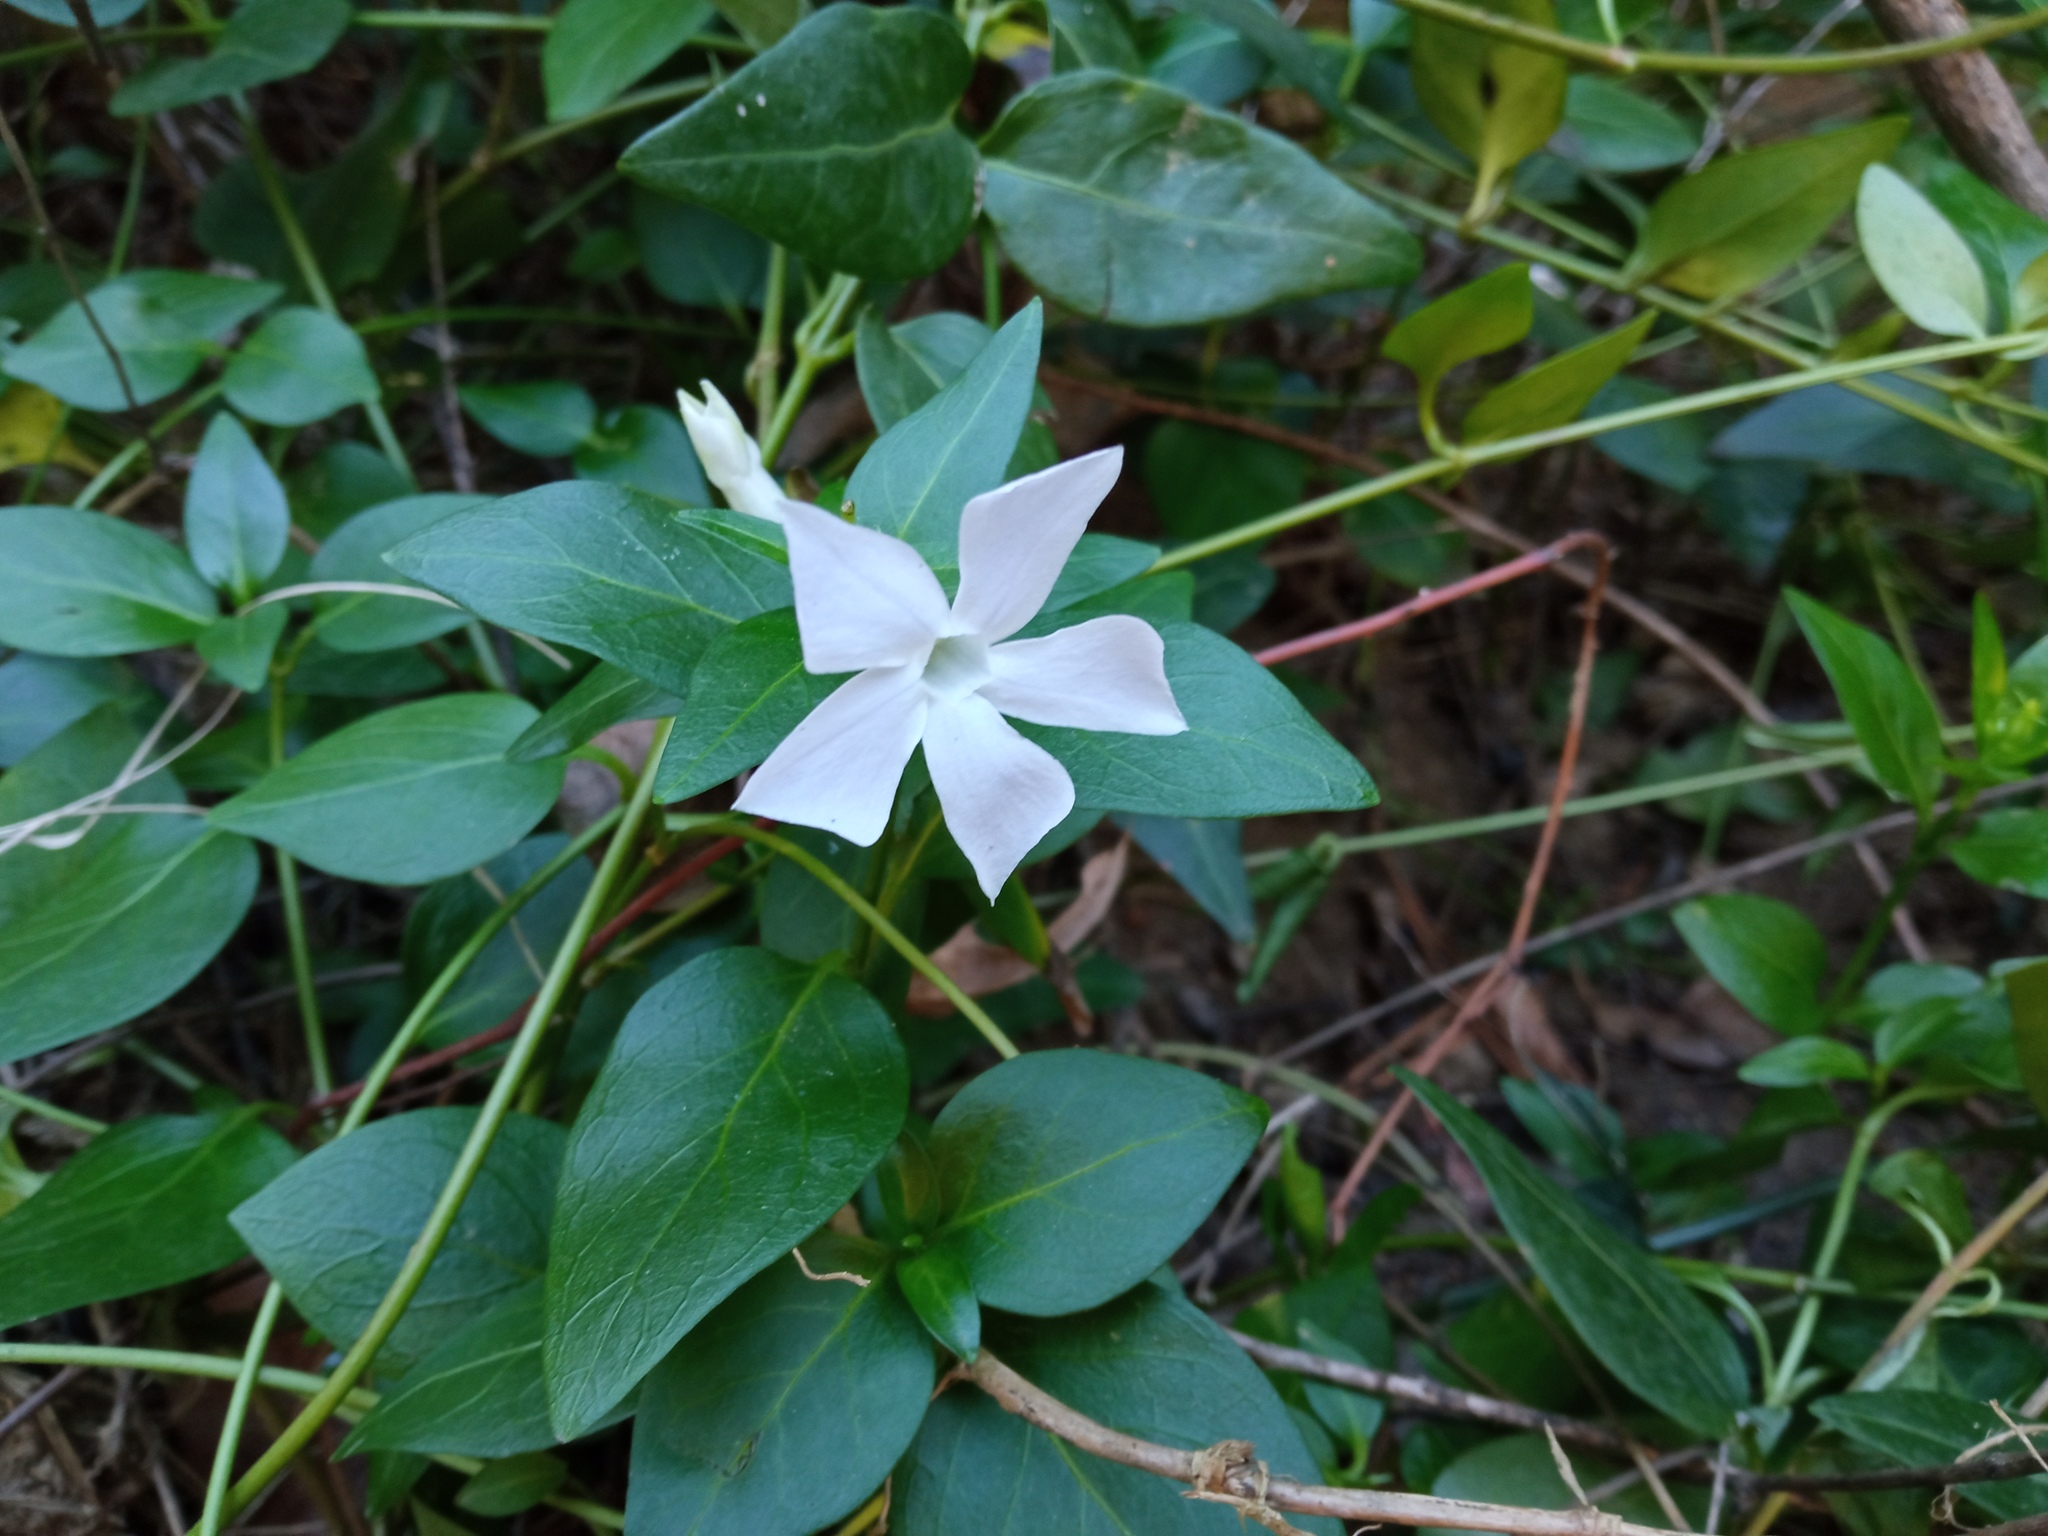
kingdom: Plantae
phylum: Tracheophyta
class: Magnoliopsida
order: Gentianales
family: Apocynaceae
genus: Vinca
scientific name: Vinca difformis
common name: Intermediate periwinkle
